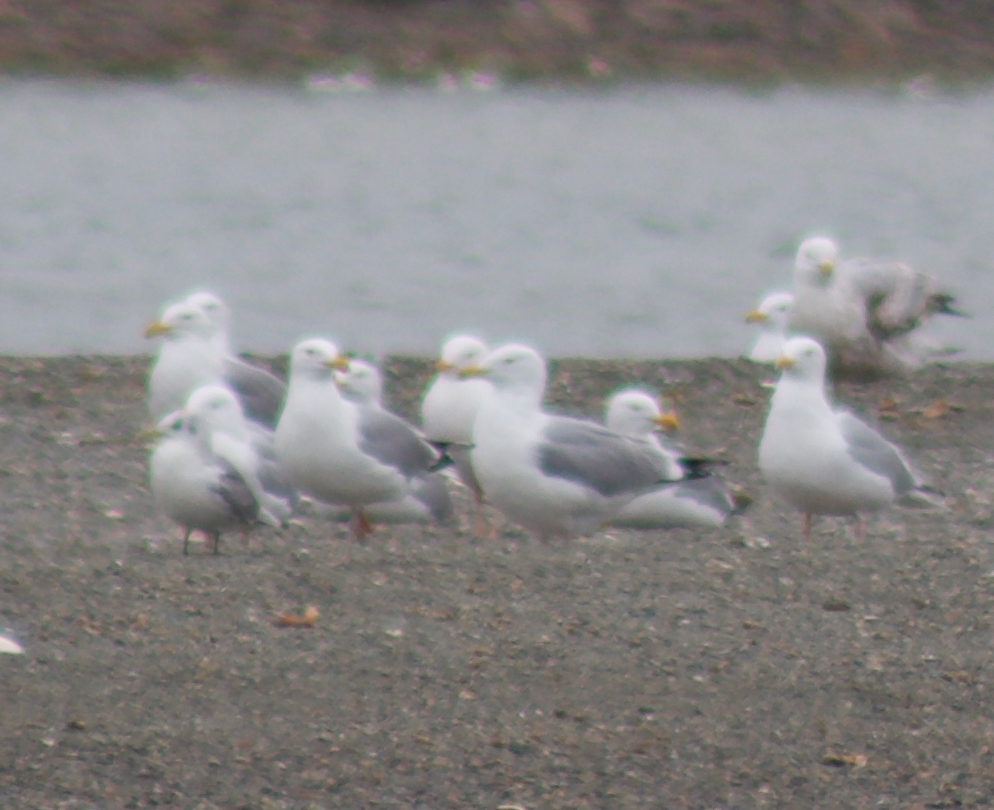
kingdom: Animalia
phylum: Chordata
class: Aves
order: Charadriiformes
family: Laridae
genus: Rissa
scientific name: Rissa tridactyla
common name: Black-legged kittiwake
